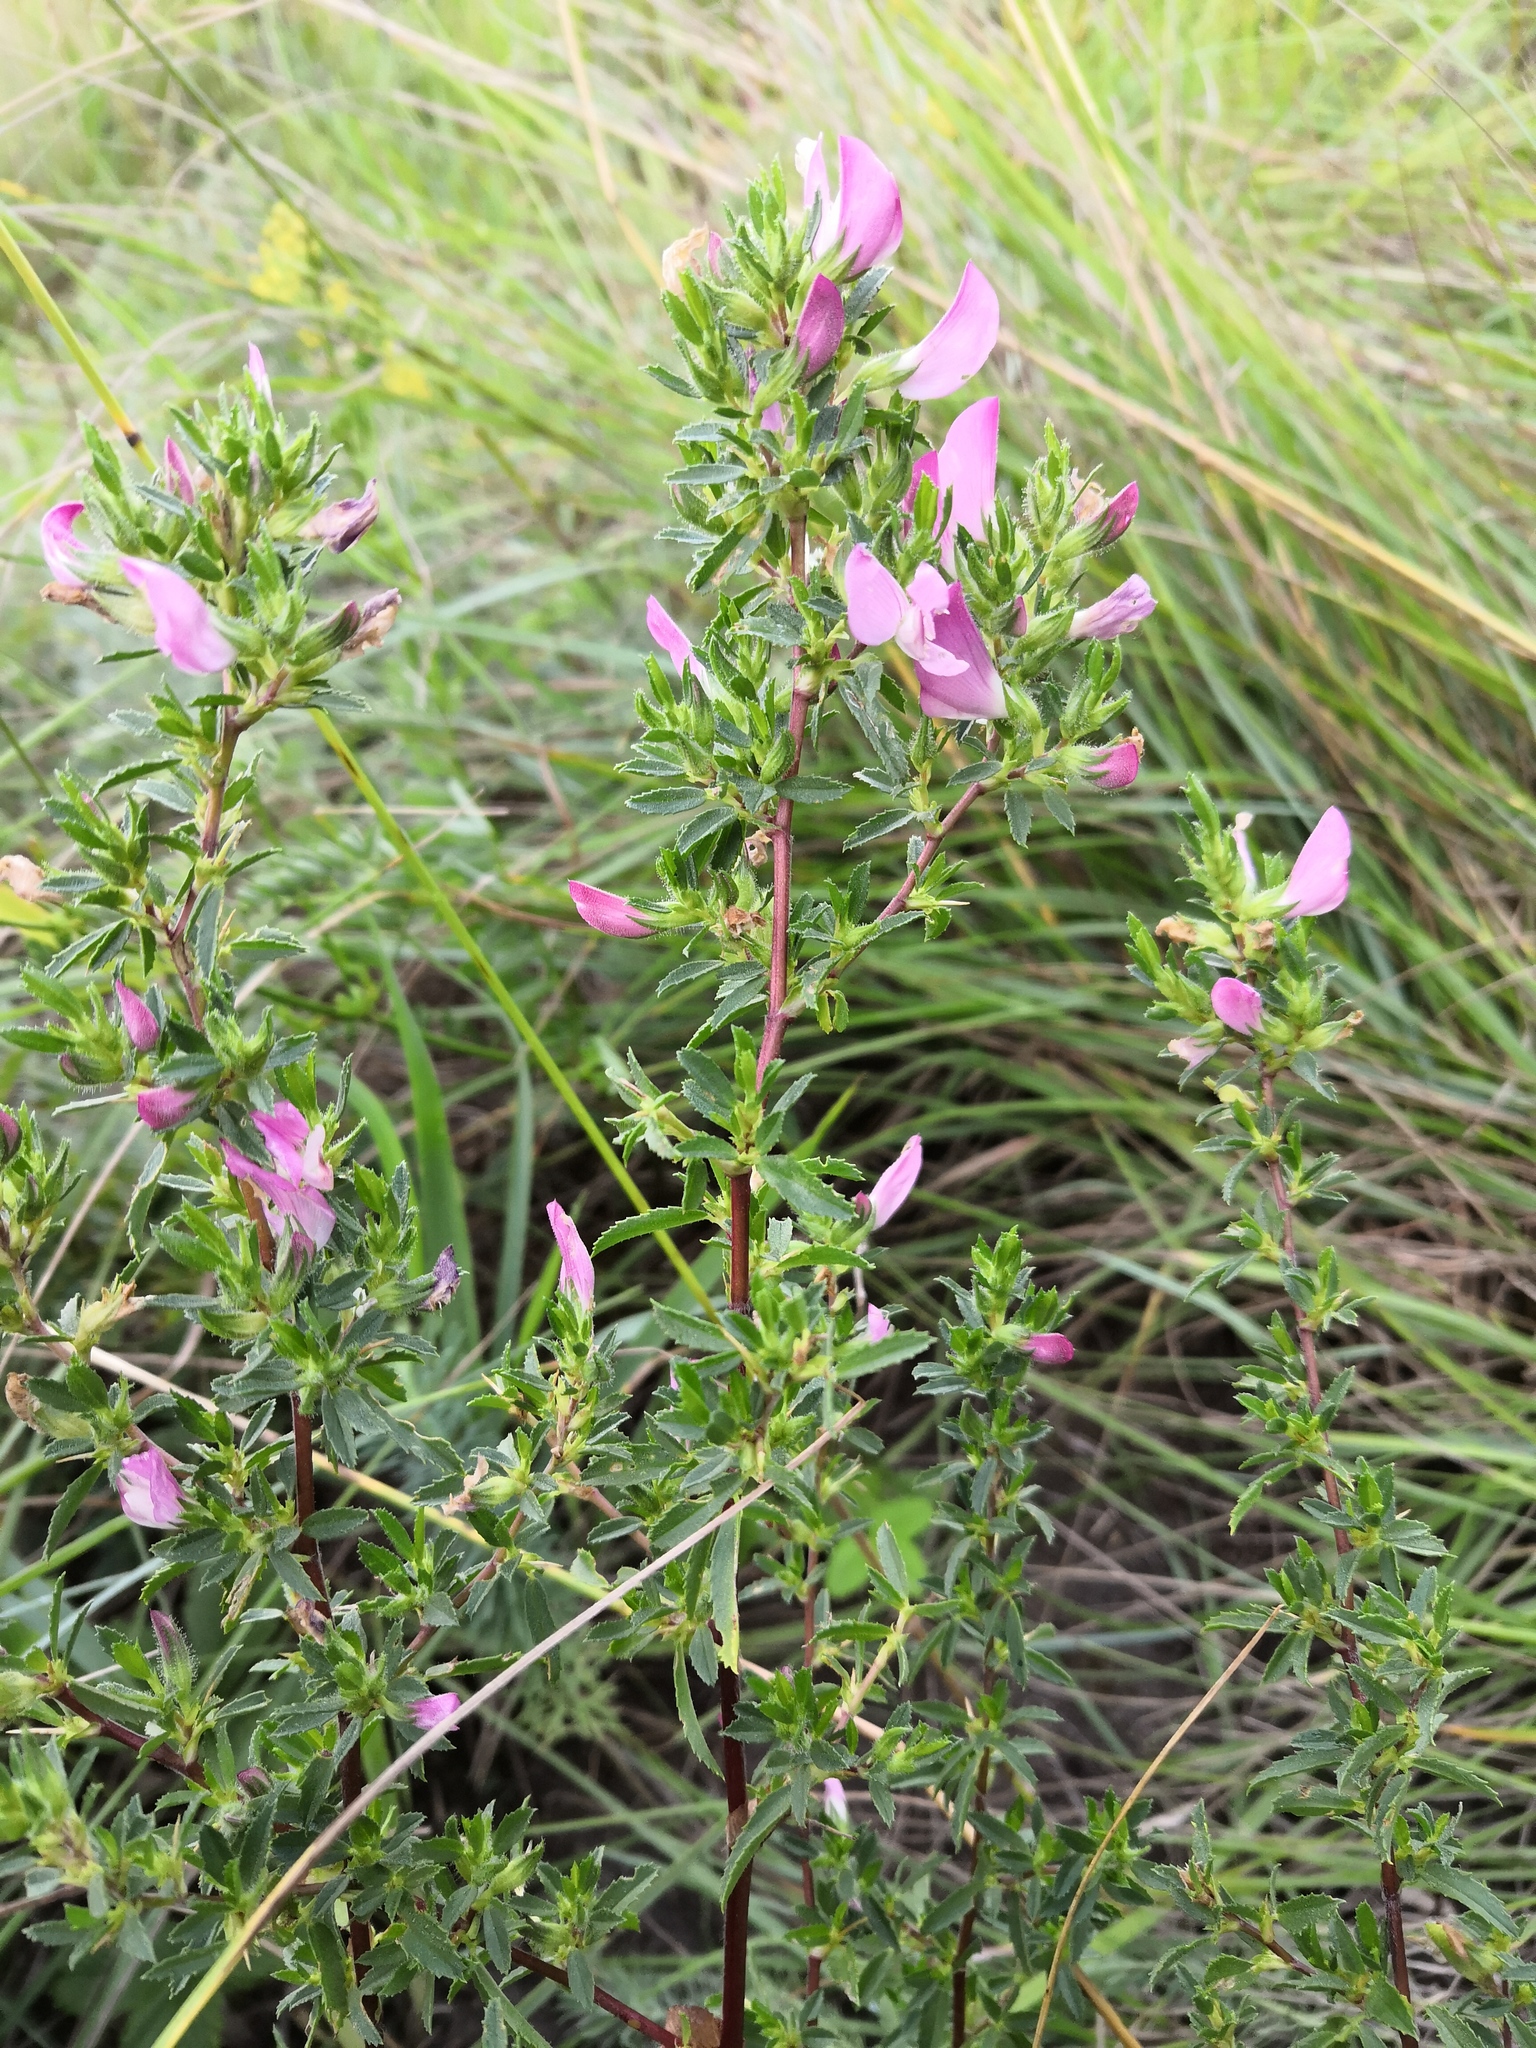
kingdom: Plantae
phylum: Tracheophyta
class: Magnoliopsida
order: Fabales
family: Fabaceae
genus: Ononis
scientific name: Ononis spinosa
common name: Spiny restharrow
